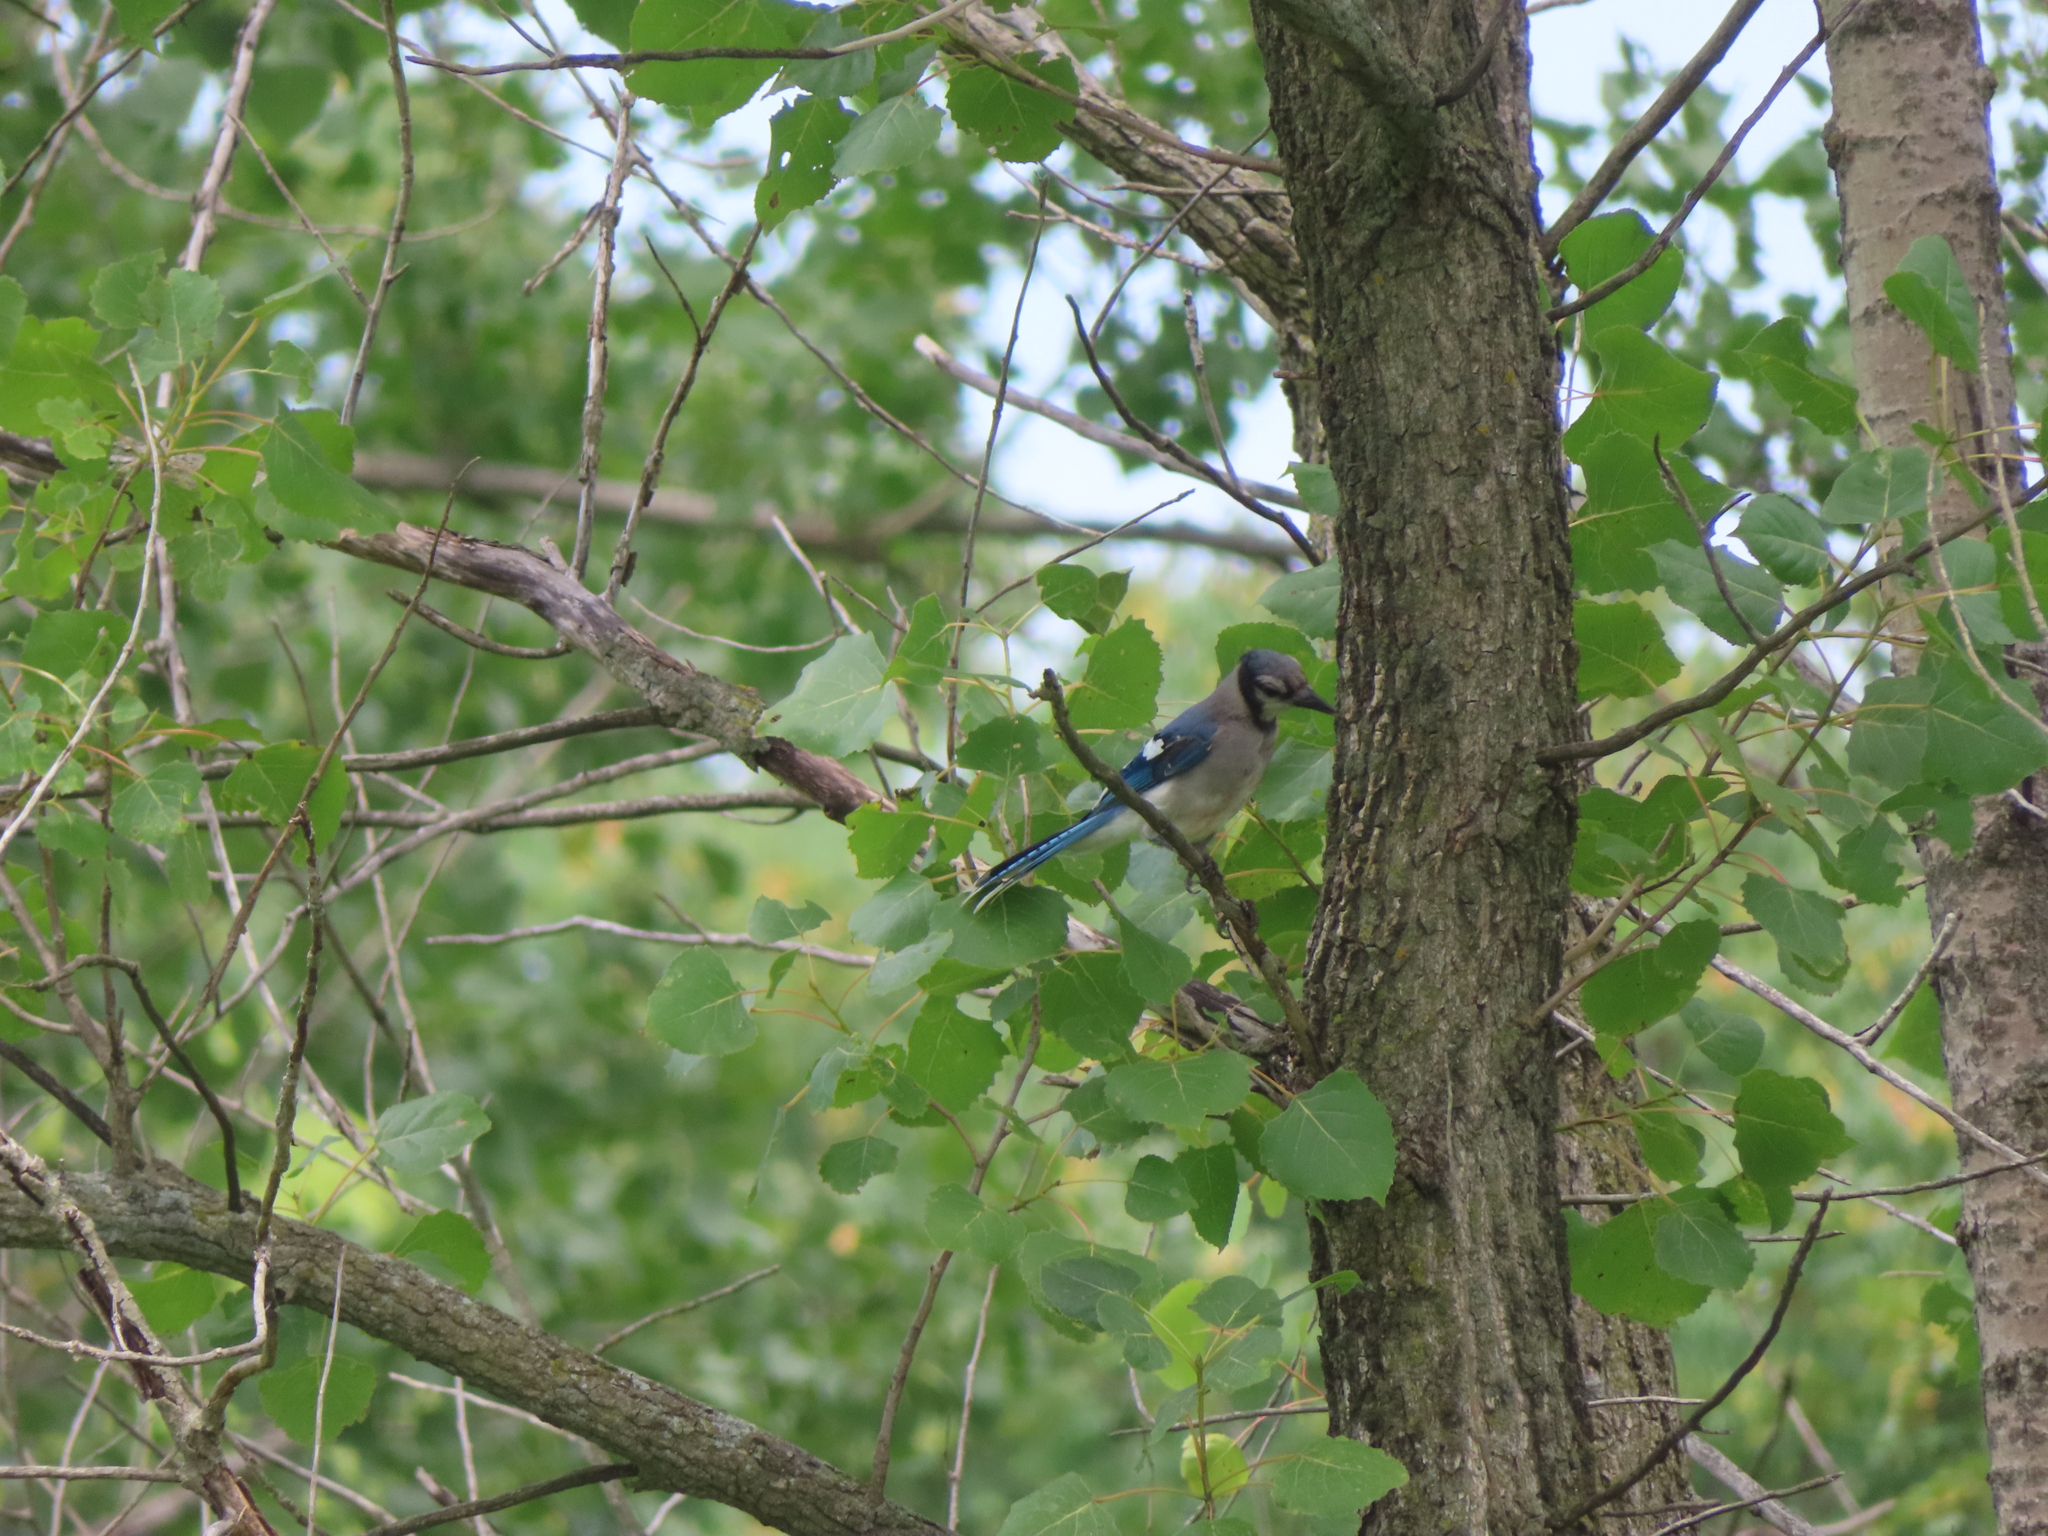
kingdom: Animalia
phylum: Chordata
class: Aves
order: Passeriformes
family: Corvidae
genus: Cyanocitta
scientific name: Cyanocitta cristata
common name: Blue jay
